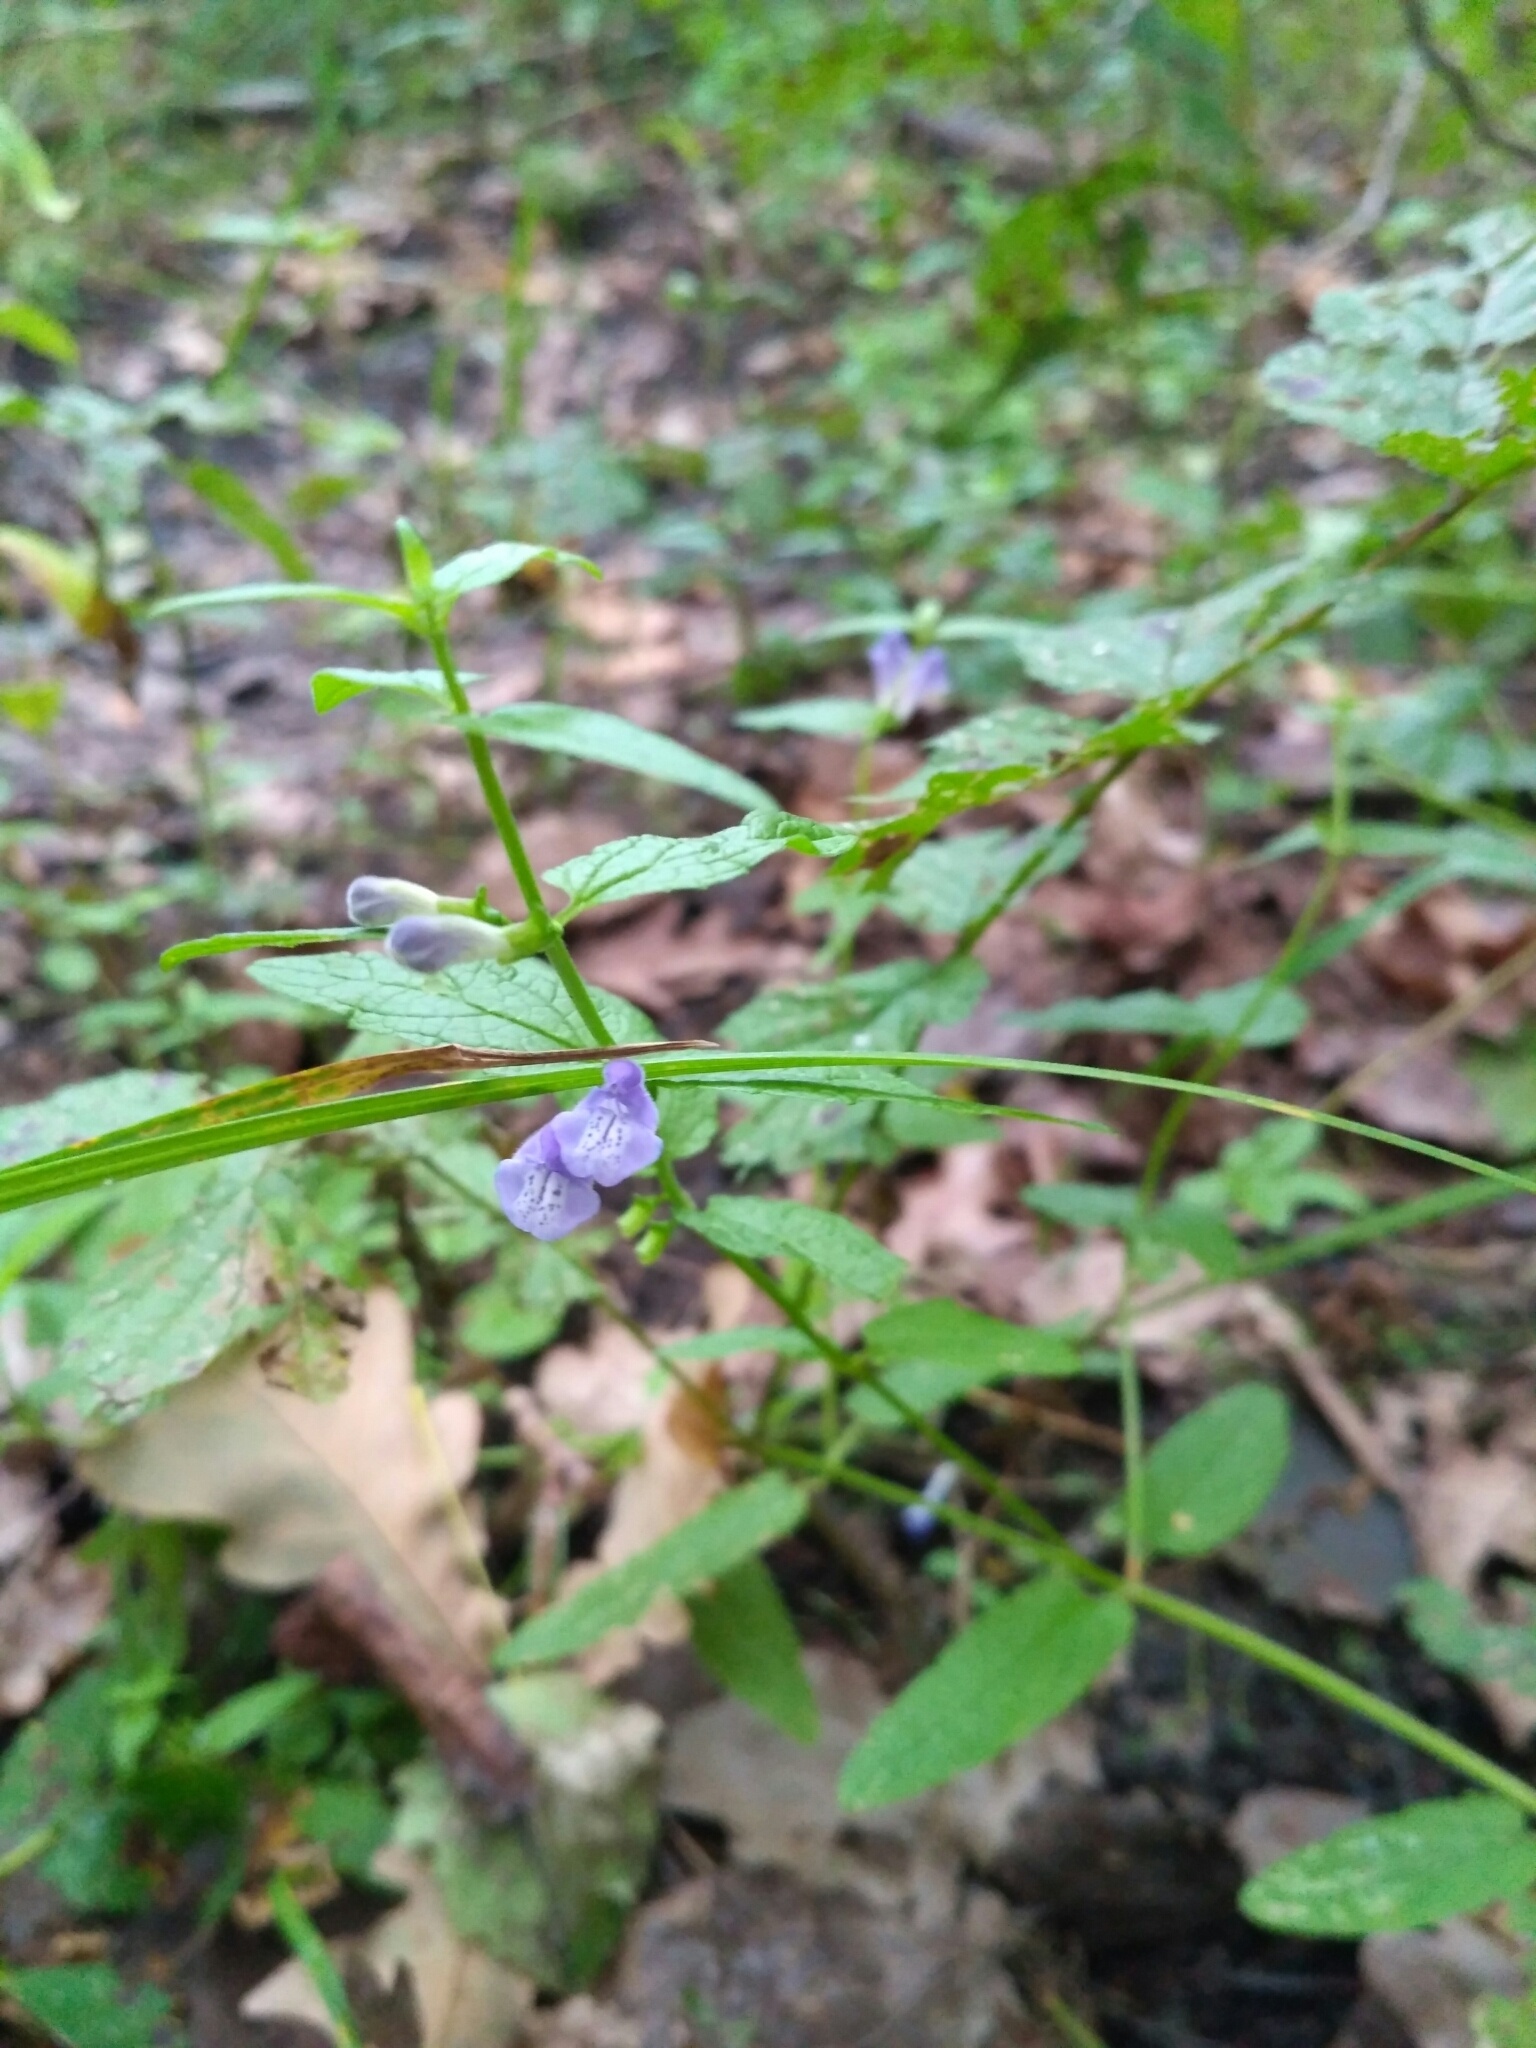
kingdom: Plantae
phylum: Tracheophyta
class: Magnoliopsida
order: Lamiales
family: Lamiaceae
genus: Scutellaria
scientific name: Scutellaria galericulata
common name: Skullcap
